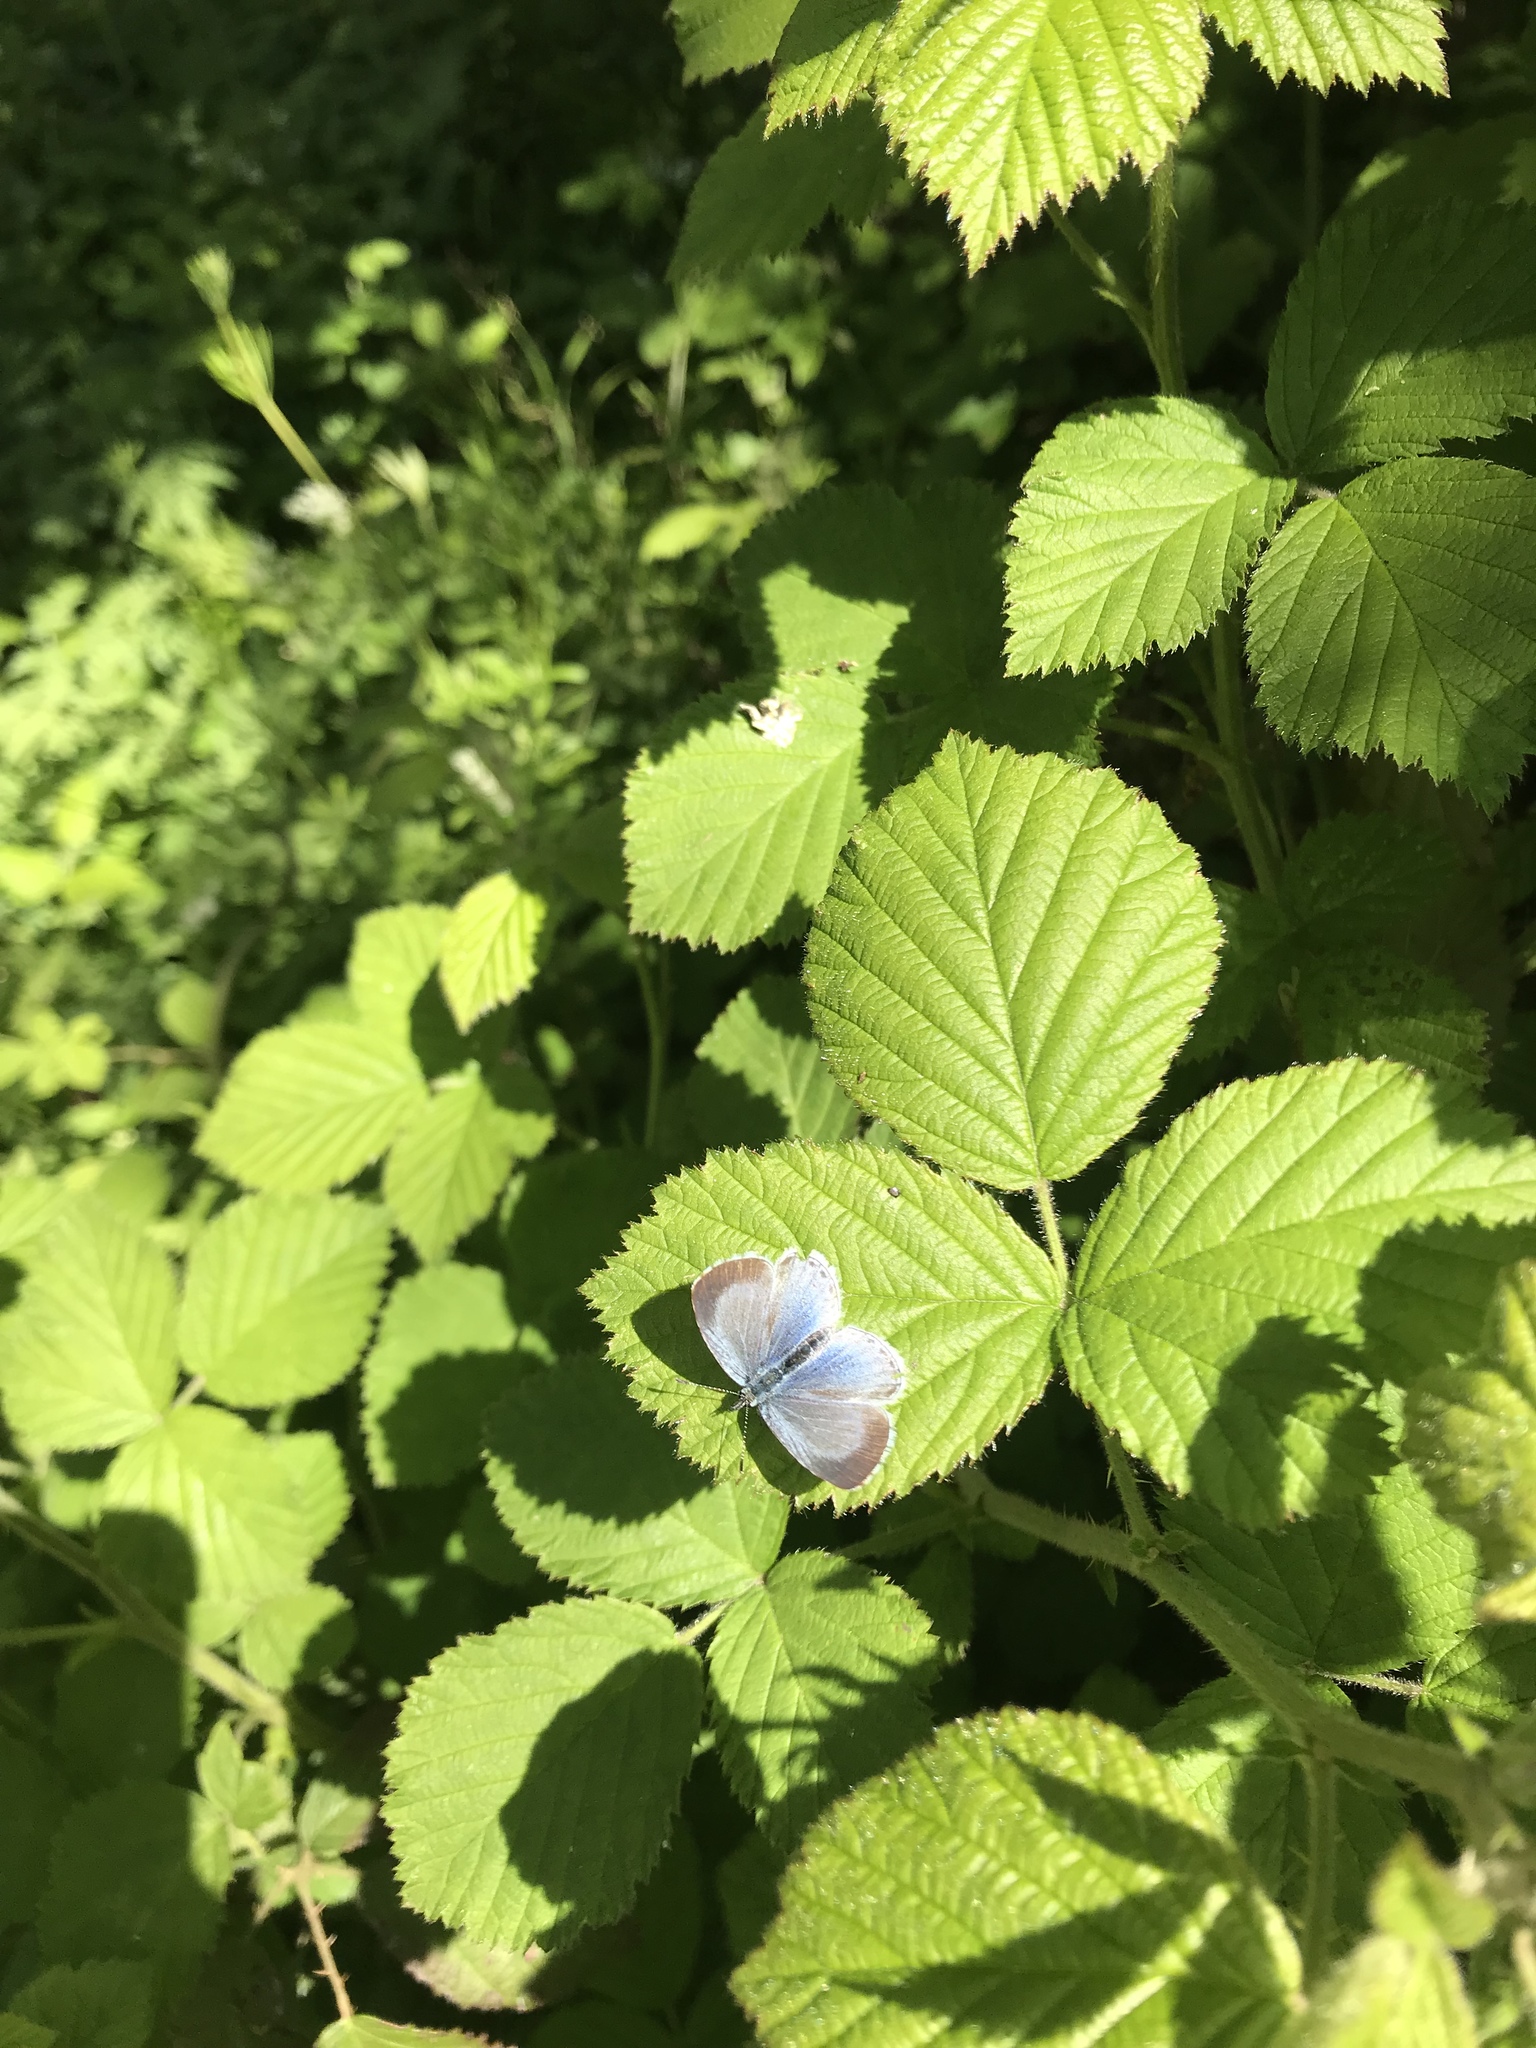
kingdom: Animalia
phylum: Arthropoda
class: Insecta
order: Lepidoptera
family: Lycaenidae
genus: Celastrina
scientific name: Celastrina argiolus
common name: Holly blue
